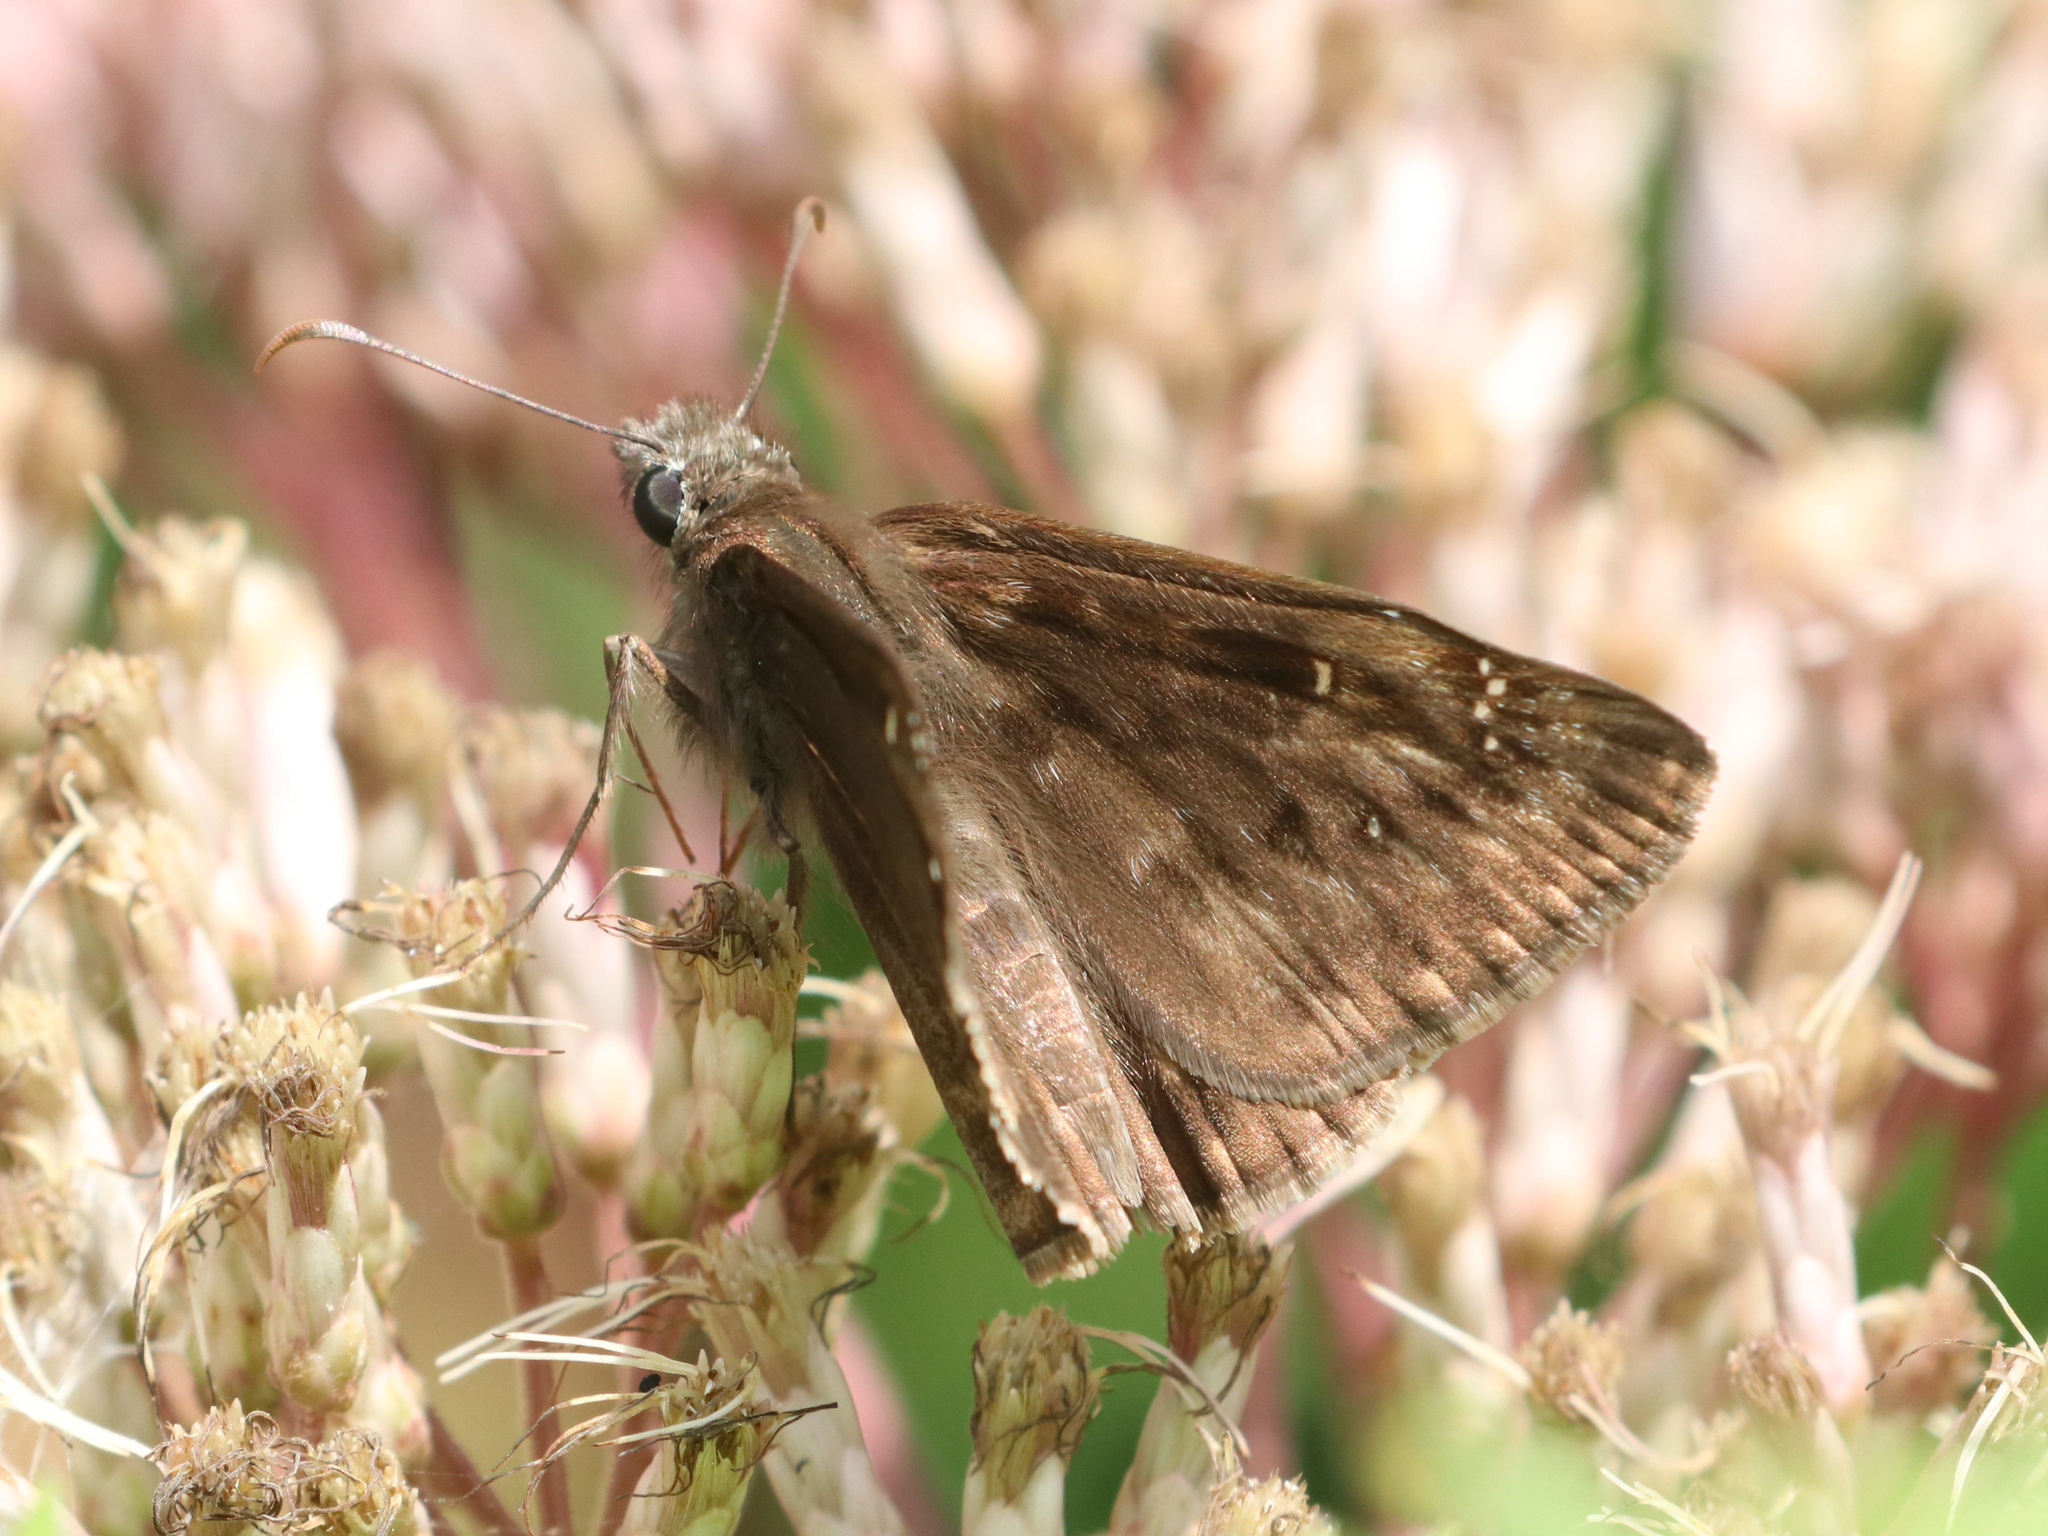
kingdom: Animalia
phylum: Arthropoda
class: Insecta
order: Lepidoptera
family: Hesperiidae
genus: Erynnis
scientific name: Erynnis horatius
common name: Horace's duskywing
